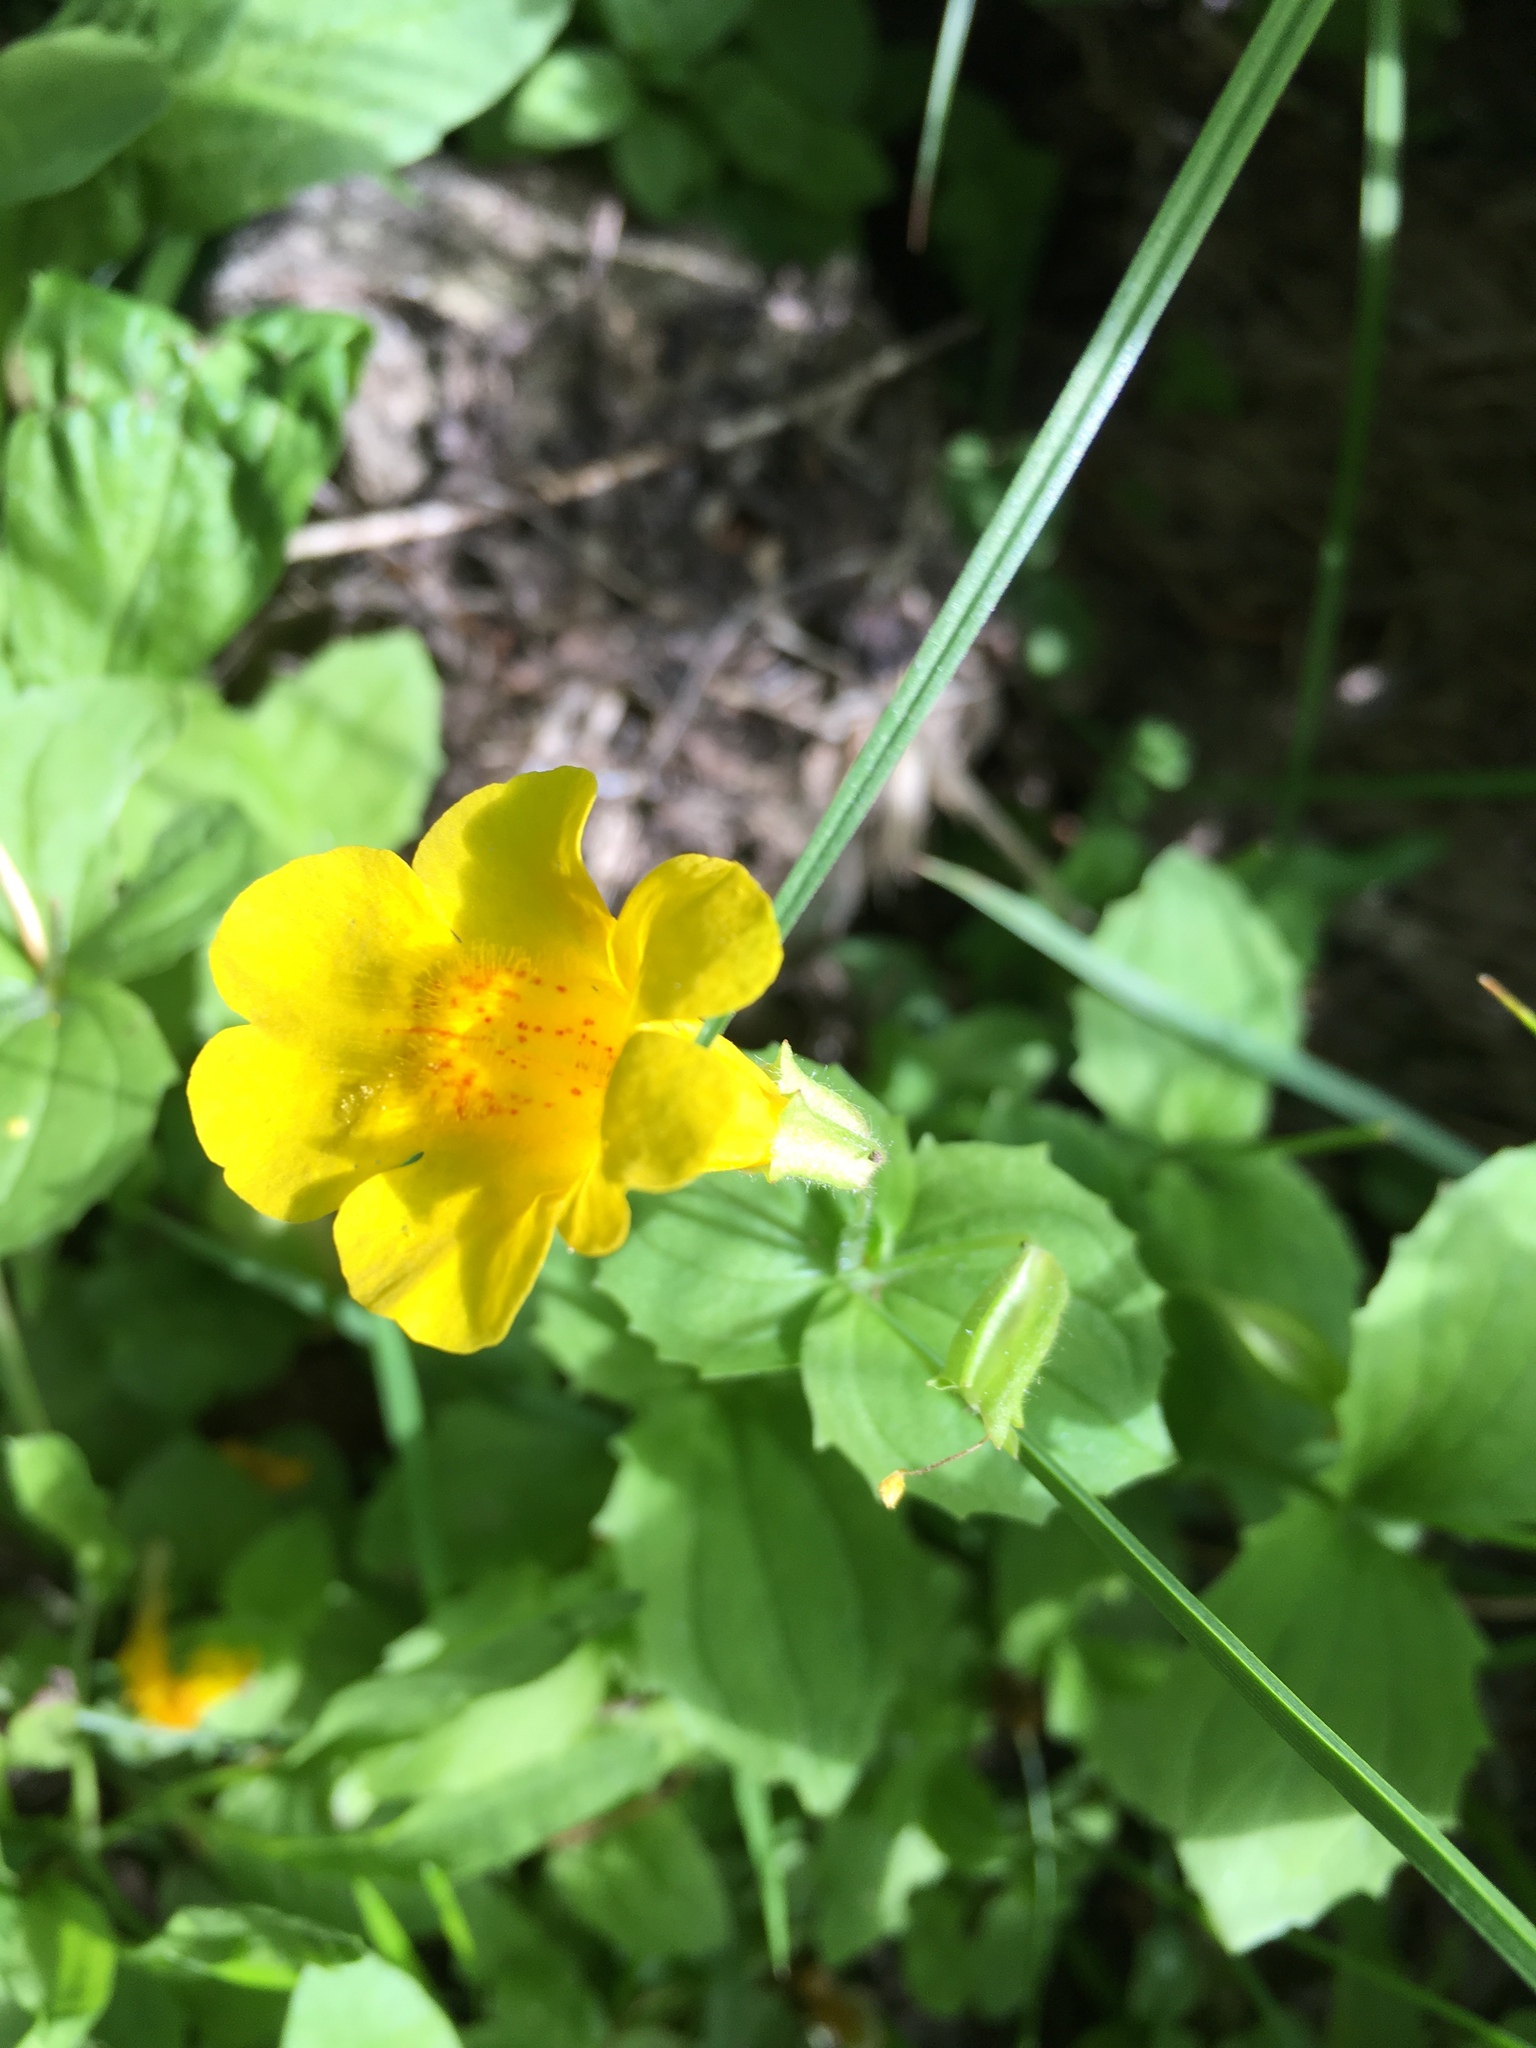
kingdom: Plantae
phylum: Tracheophyta
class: Magnoliopsida
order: Lamiales
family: Phrymaceae
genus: Erythranthe
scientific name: Erythranthe guttata
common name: Monkeyflower
